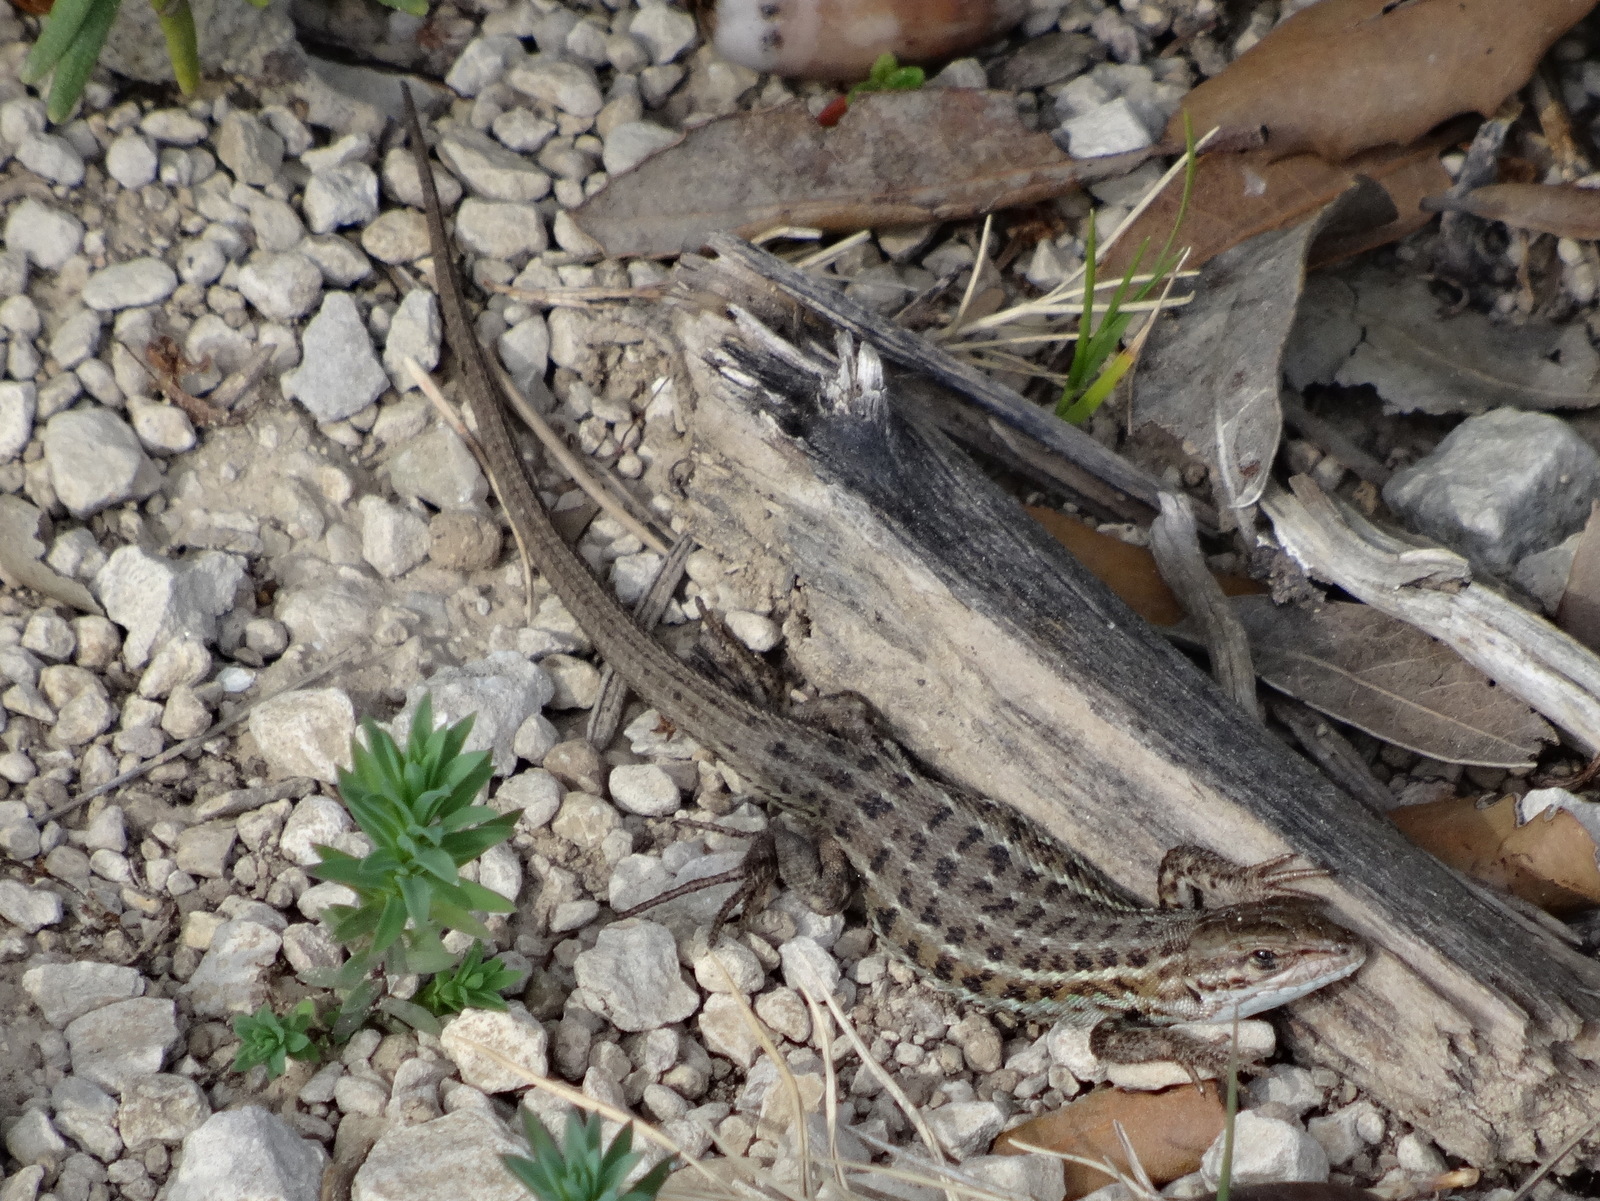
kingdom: Animalia
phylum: Chordata
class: Squamata
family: Lacertidae
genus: Psammodromus
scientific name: Psammodromus edwarsianus
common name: East iberian psammodromus
